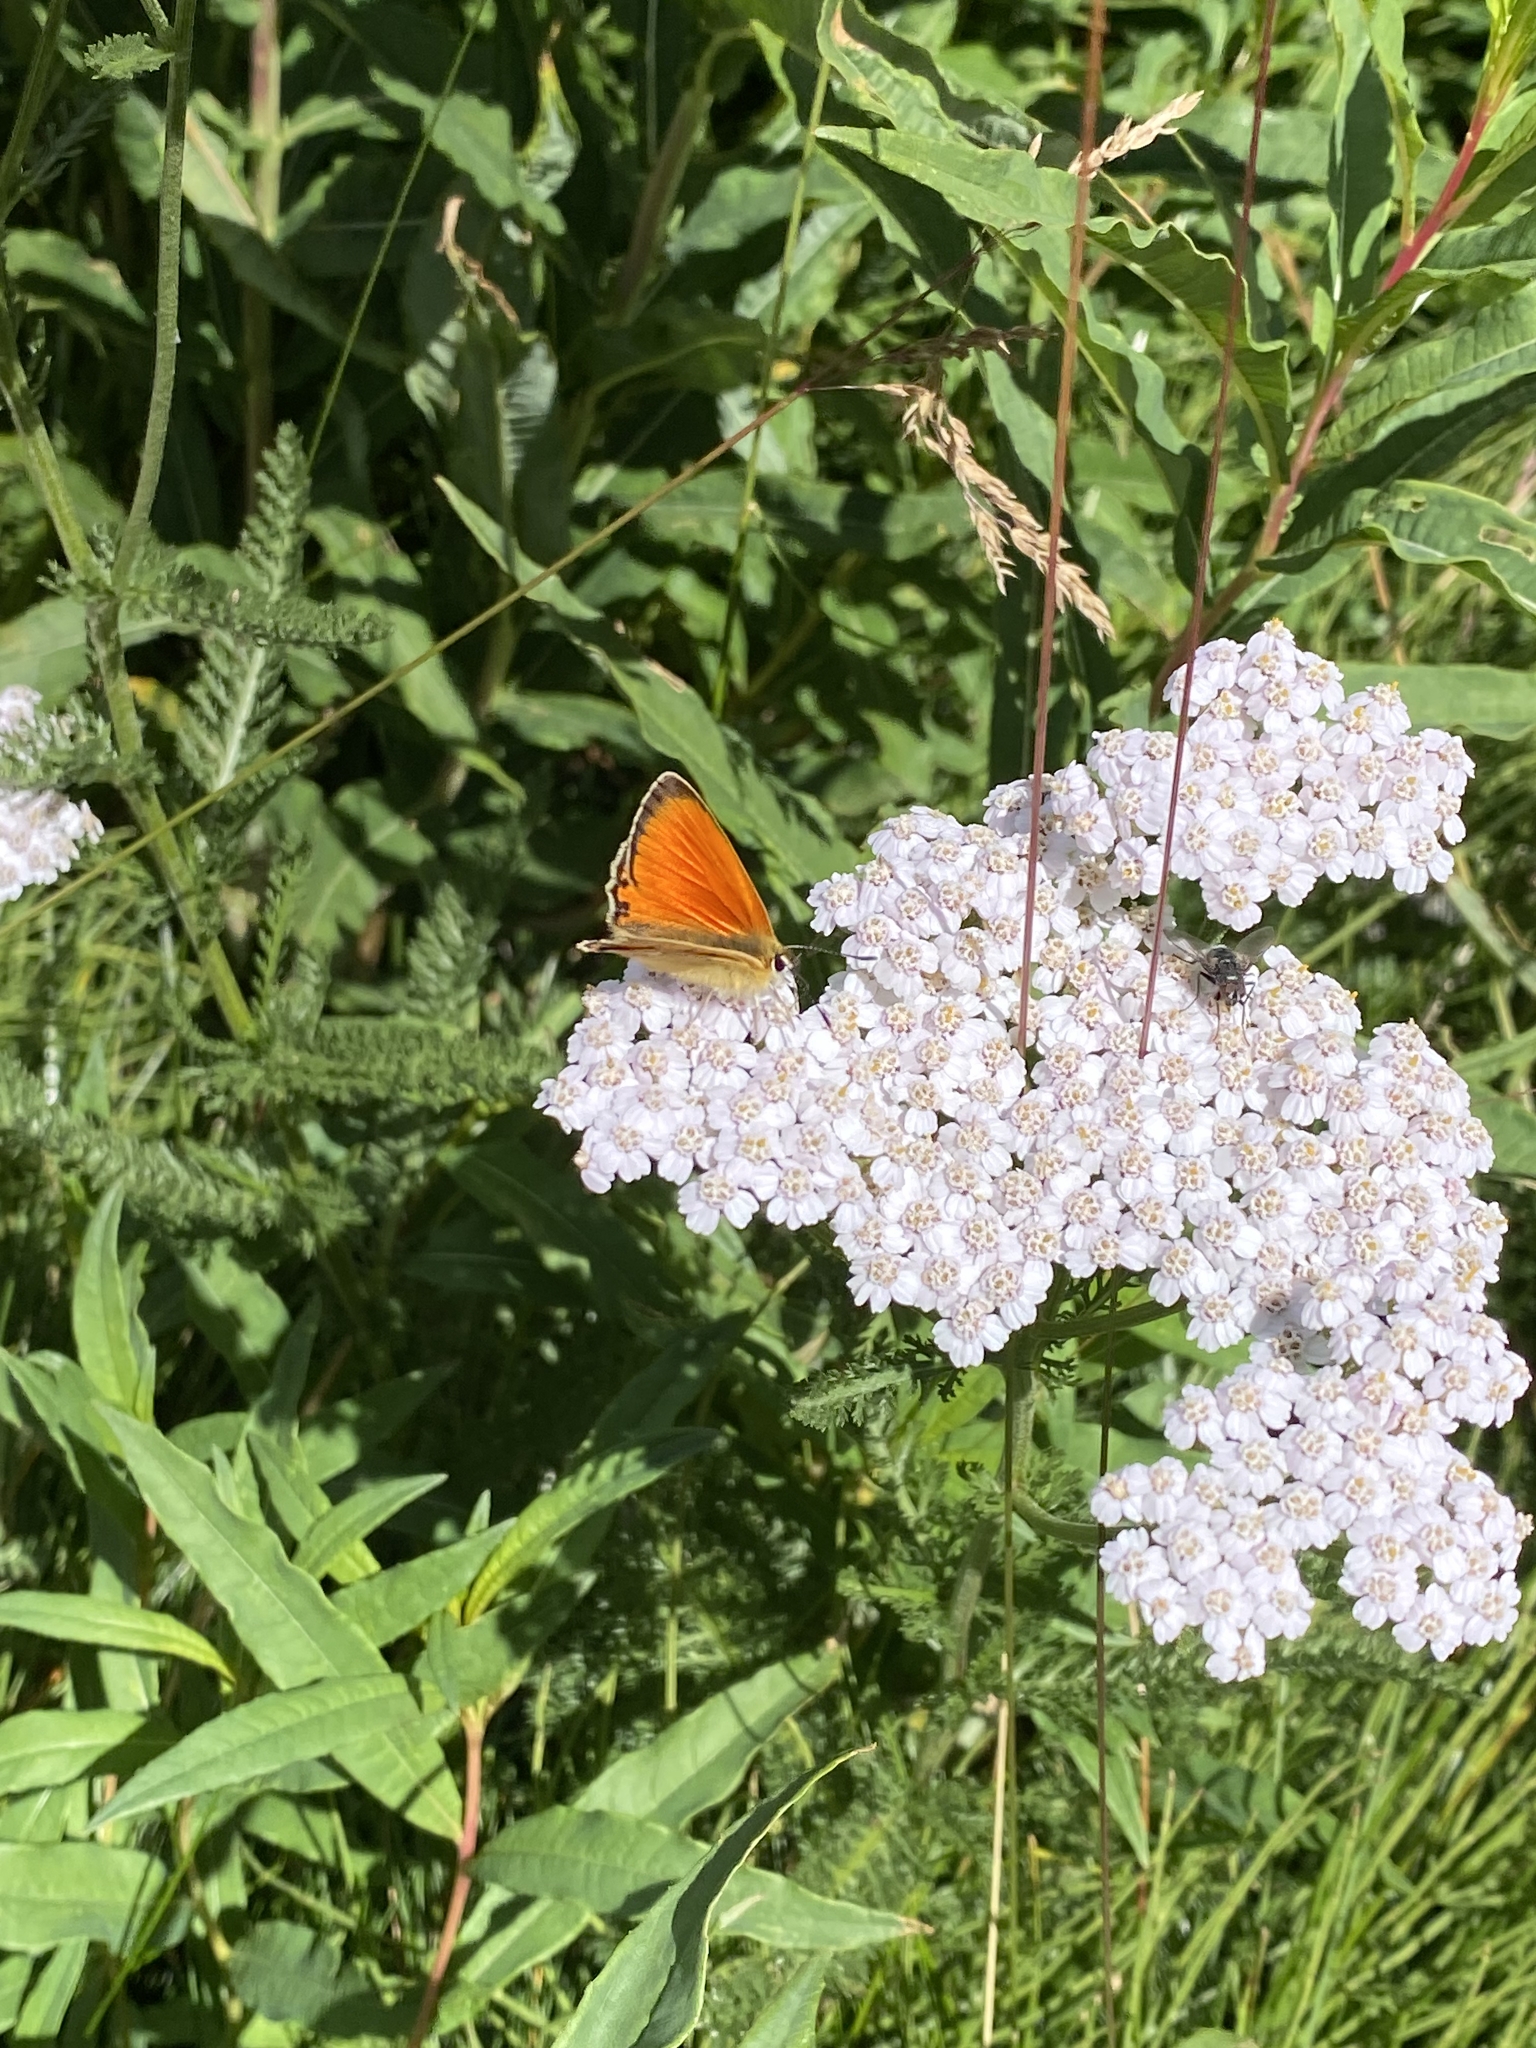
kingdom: Animalia
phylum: Arthropoda
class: Insecta
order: Lepidoptera
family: Lycaenidae
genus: Lycaena
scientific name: Lycaena virgaureae
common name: Scarce copper
